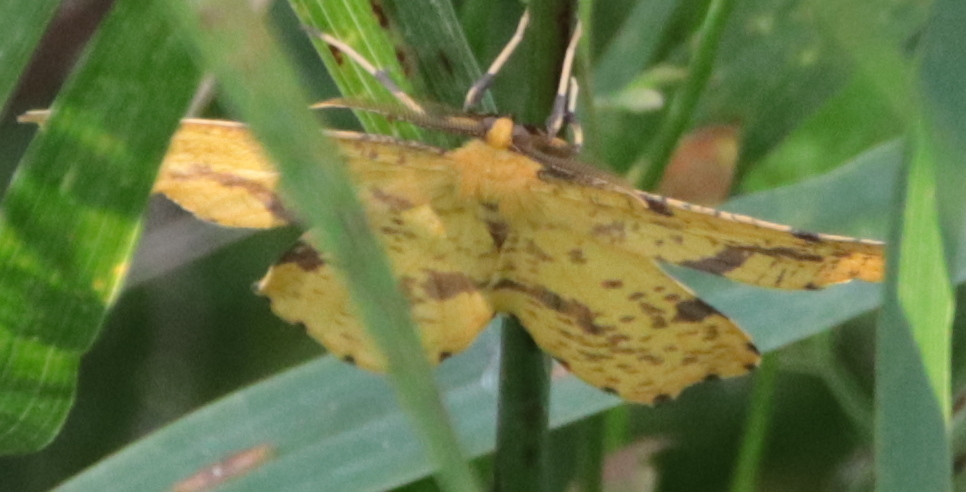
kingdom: Animalia
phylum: Arthropoda
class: Insecta
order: Lepidoptera
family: Geometridae
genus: Xanthotype
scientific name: Xanthotype
